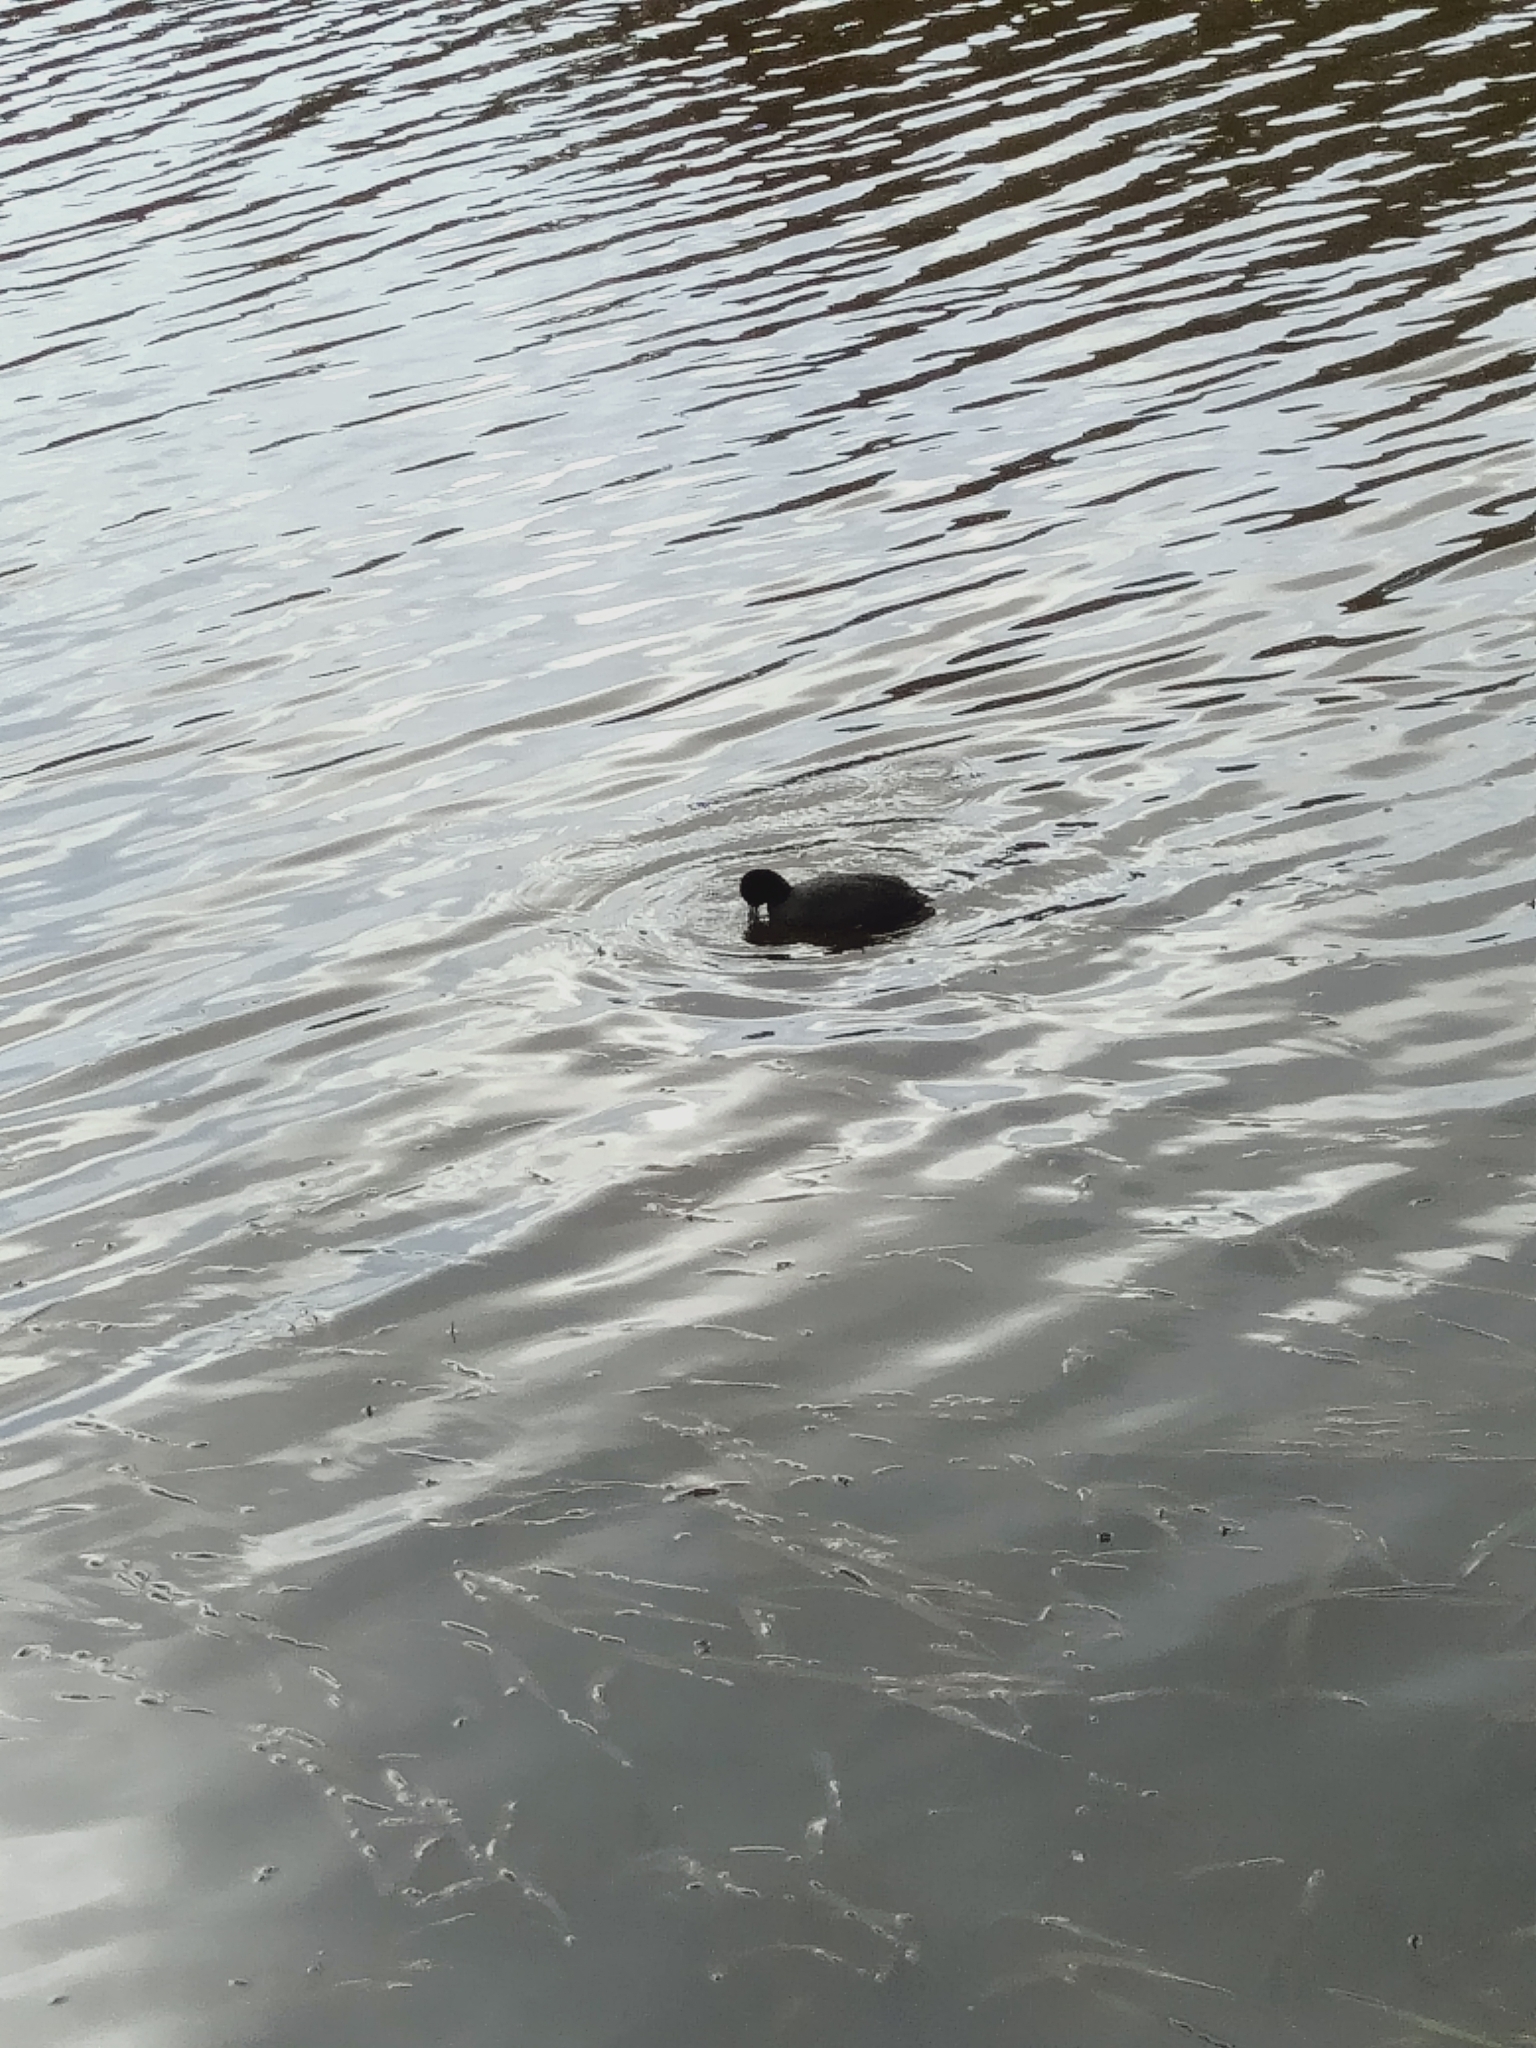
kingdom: Animalia
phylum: Chordata
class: Aves
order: Gruiformes
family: Rallidae
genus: Fulica
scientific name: Fulica atra
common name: Eurasian coot
